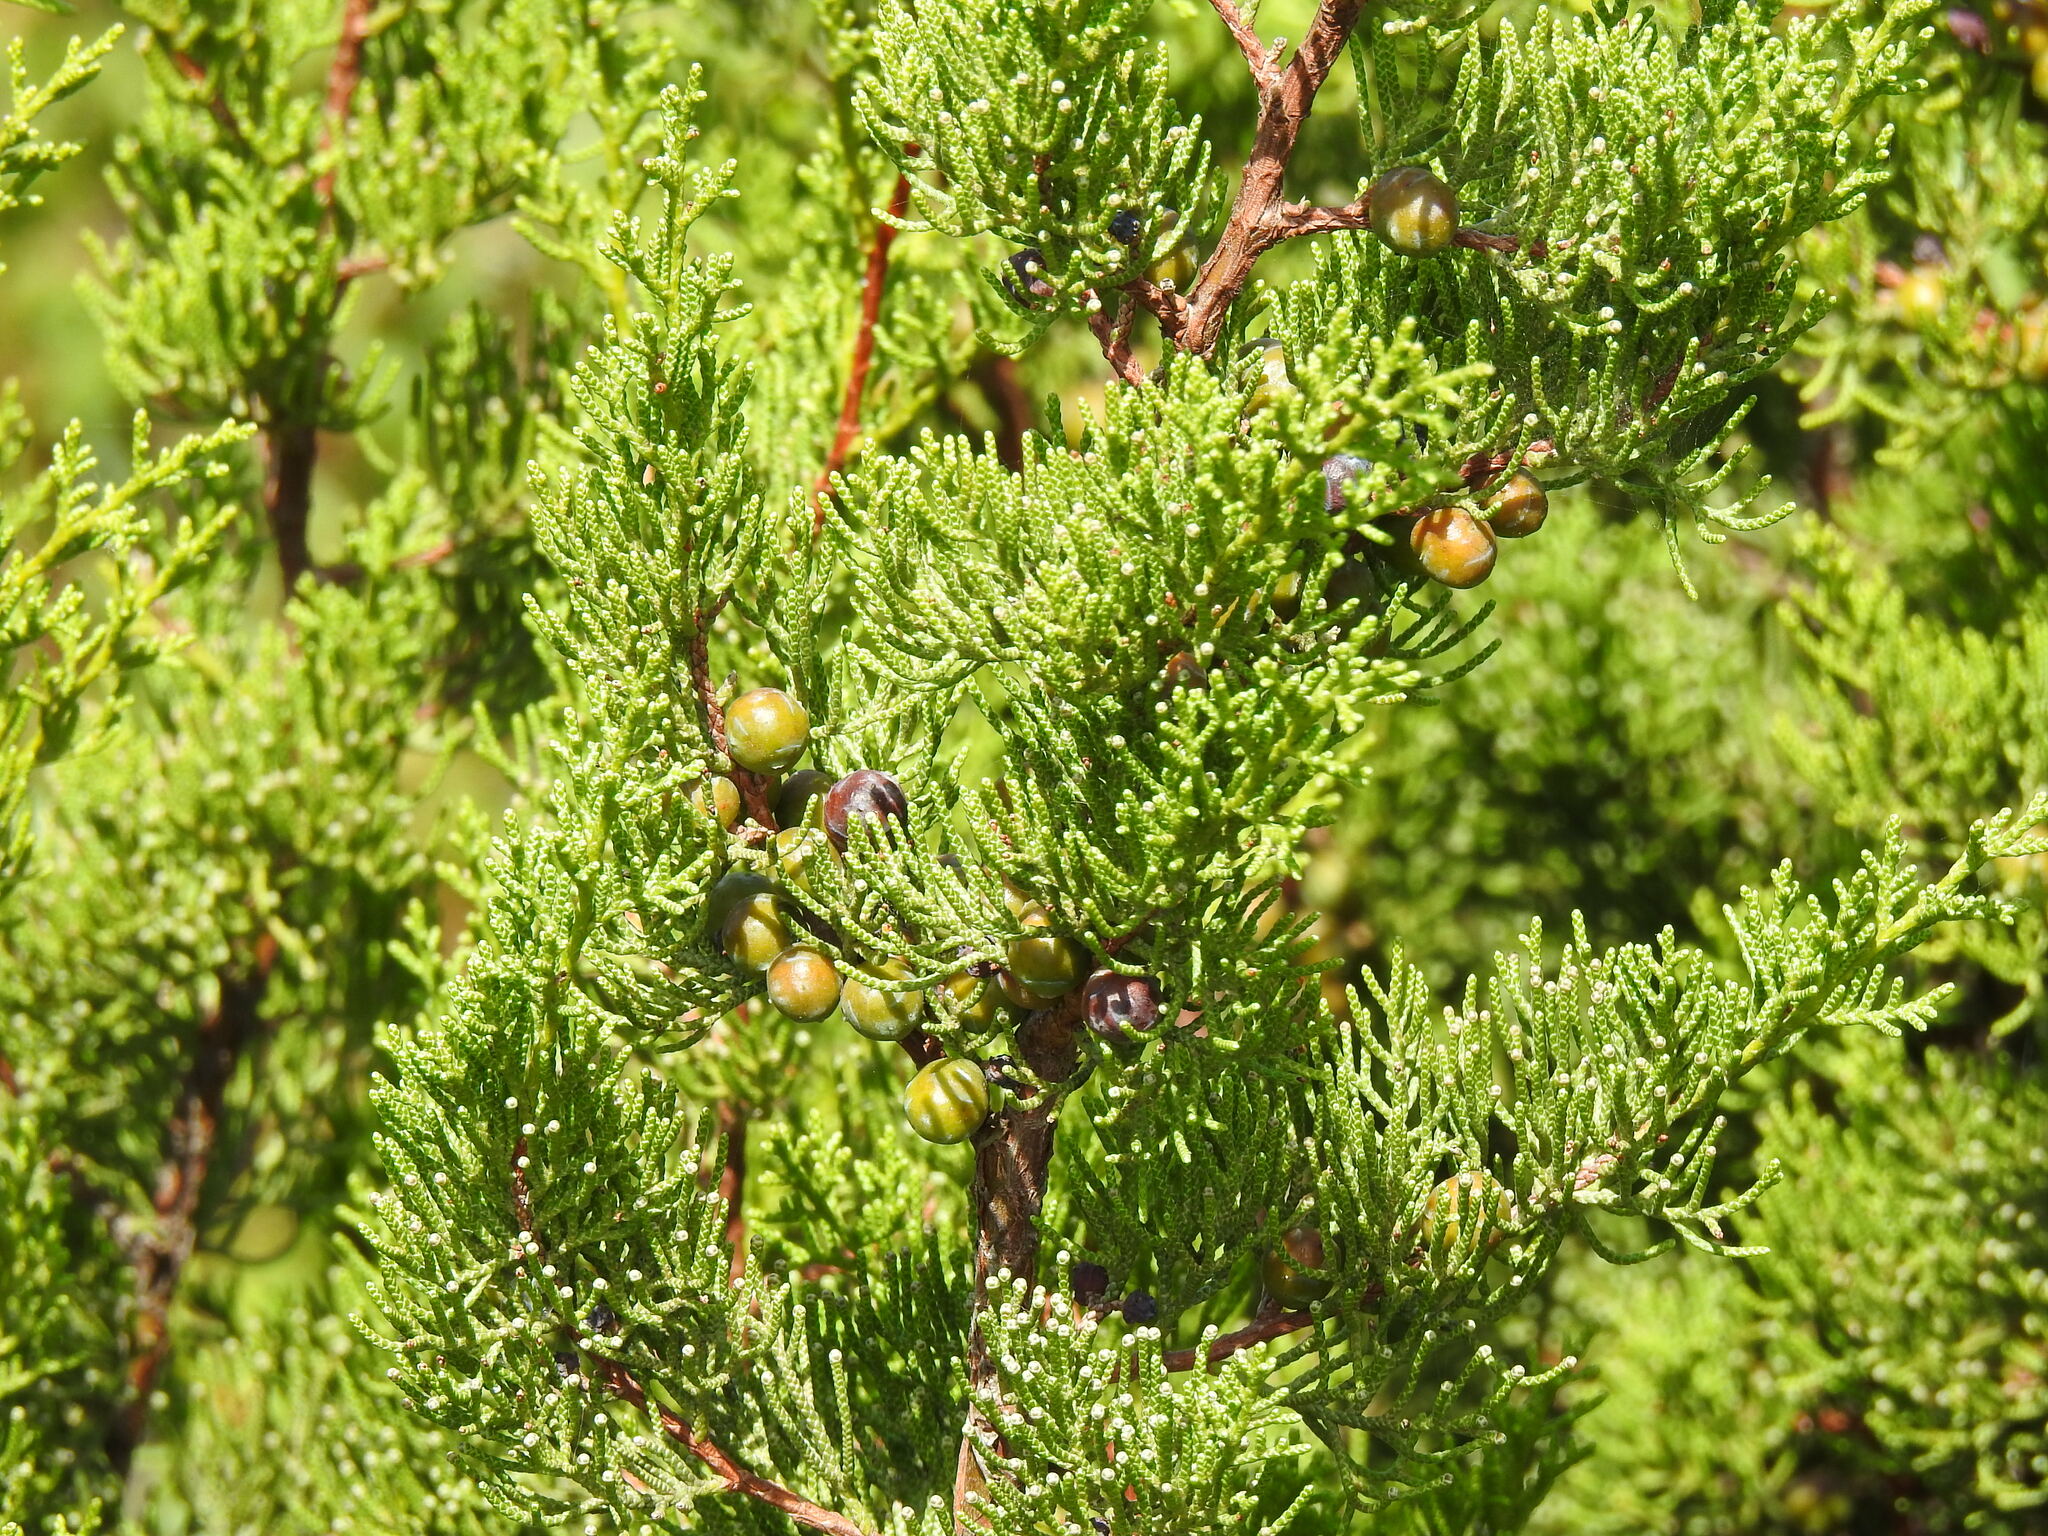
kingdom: Plantae
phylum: Tracheophyta
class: Pinopsida
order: Pinales
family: Cupressaceae
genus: Juniperus
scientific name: Juniperus phoenicea
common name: Phoenician juniper
